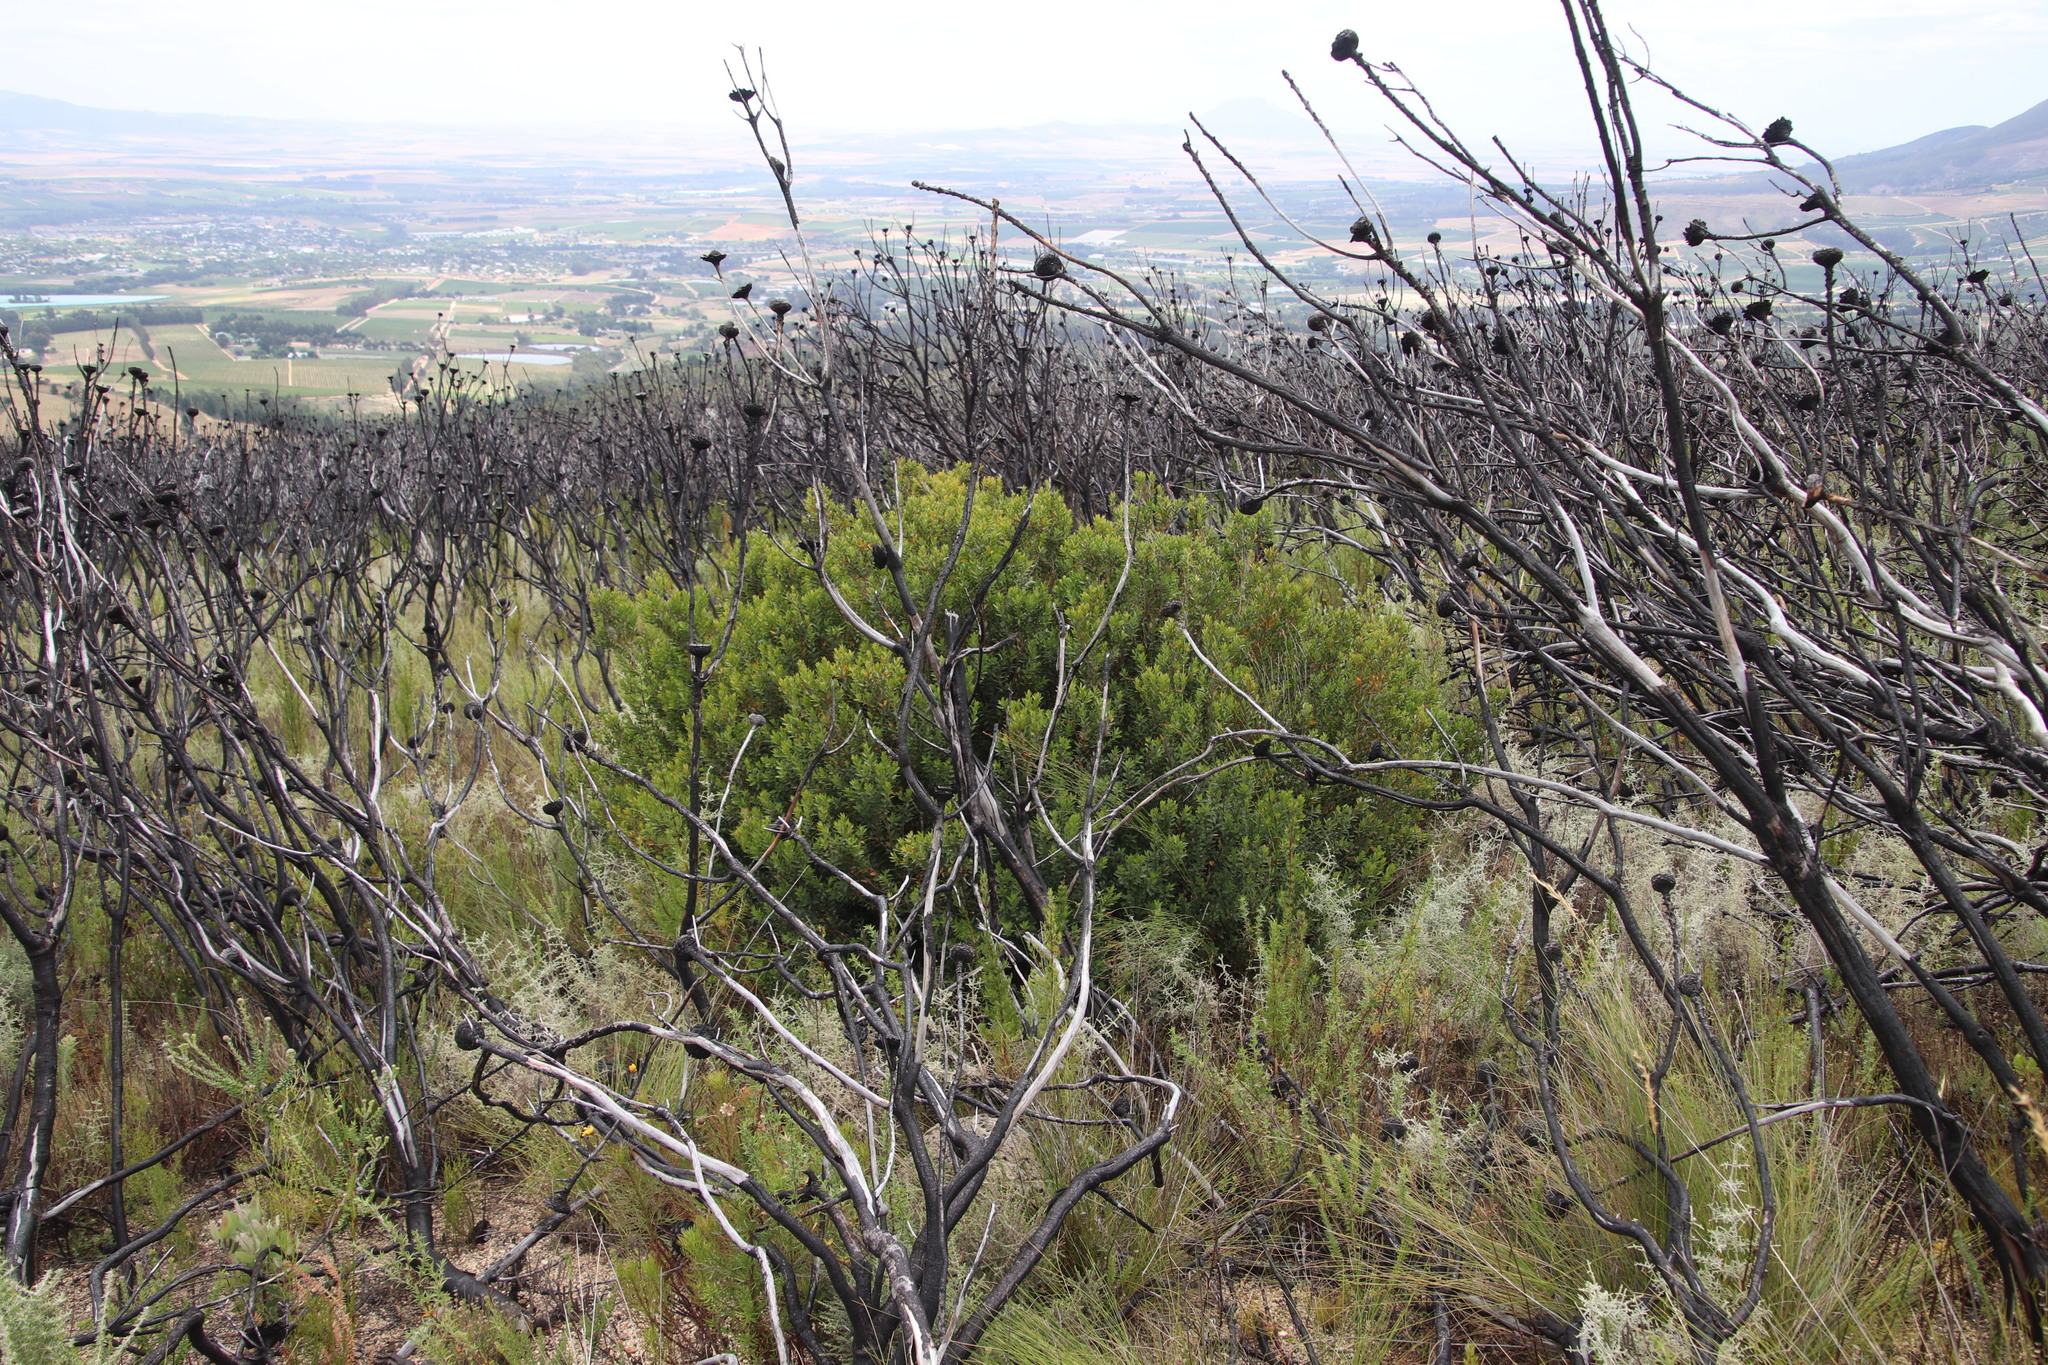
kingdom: Plantae
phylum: Tracheophyta
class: Magnoliopsida
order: Ericales
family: Ebenaceae
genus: Diospyros
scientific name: Diospyros glabra
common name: Fynbos star apple
